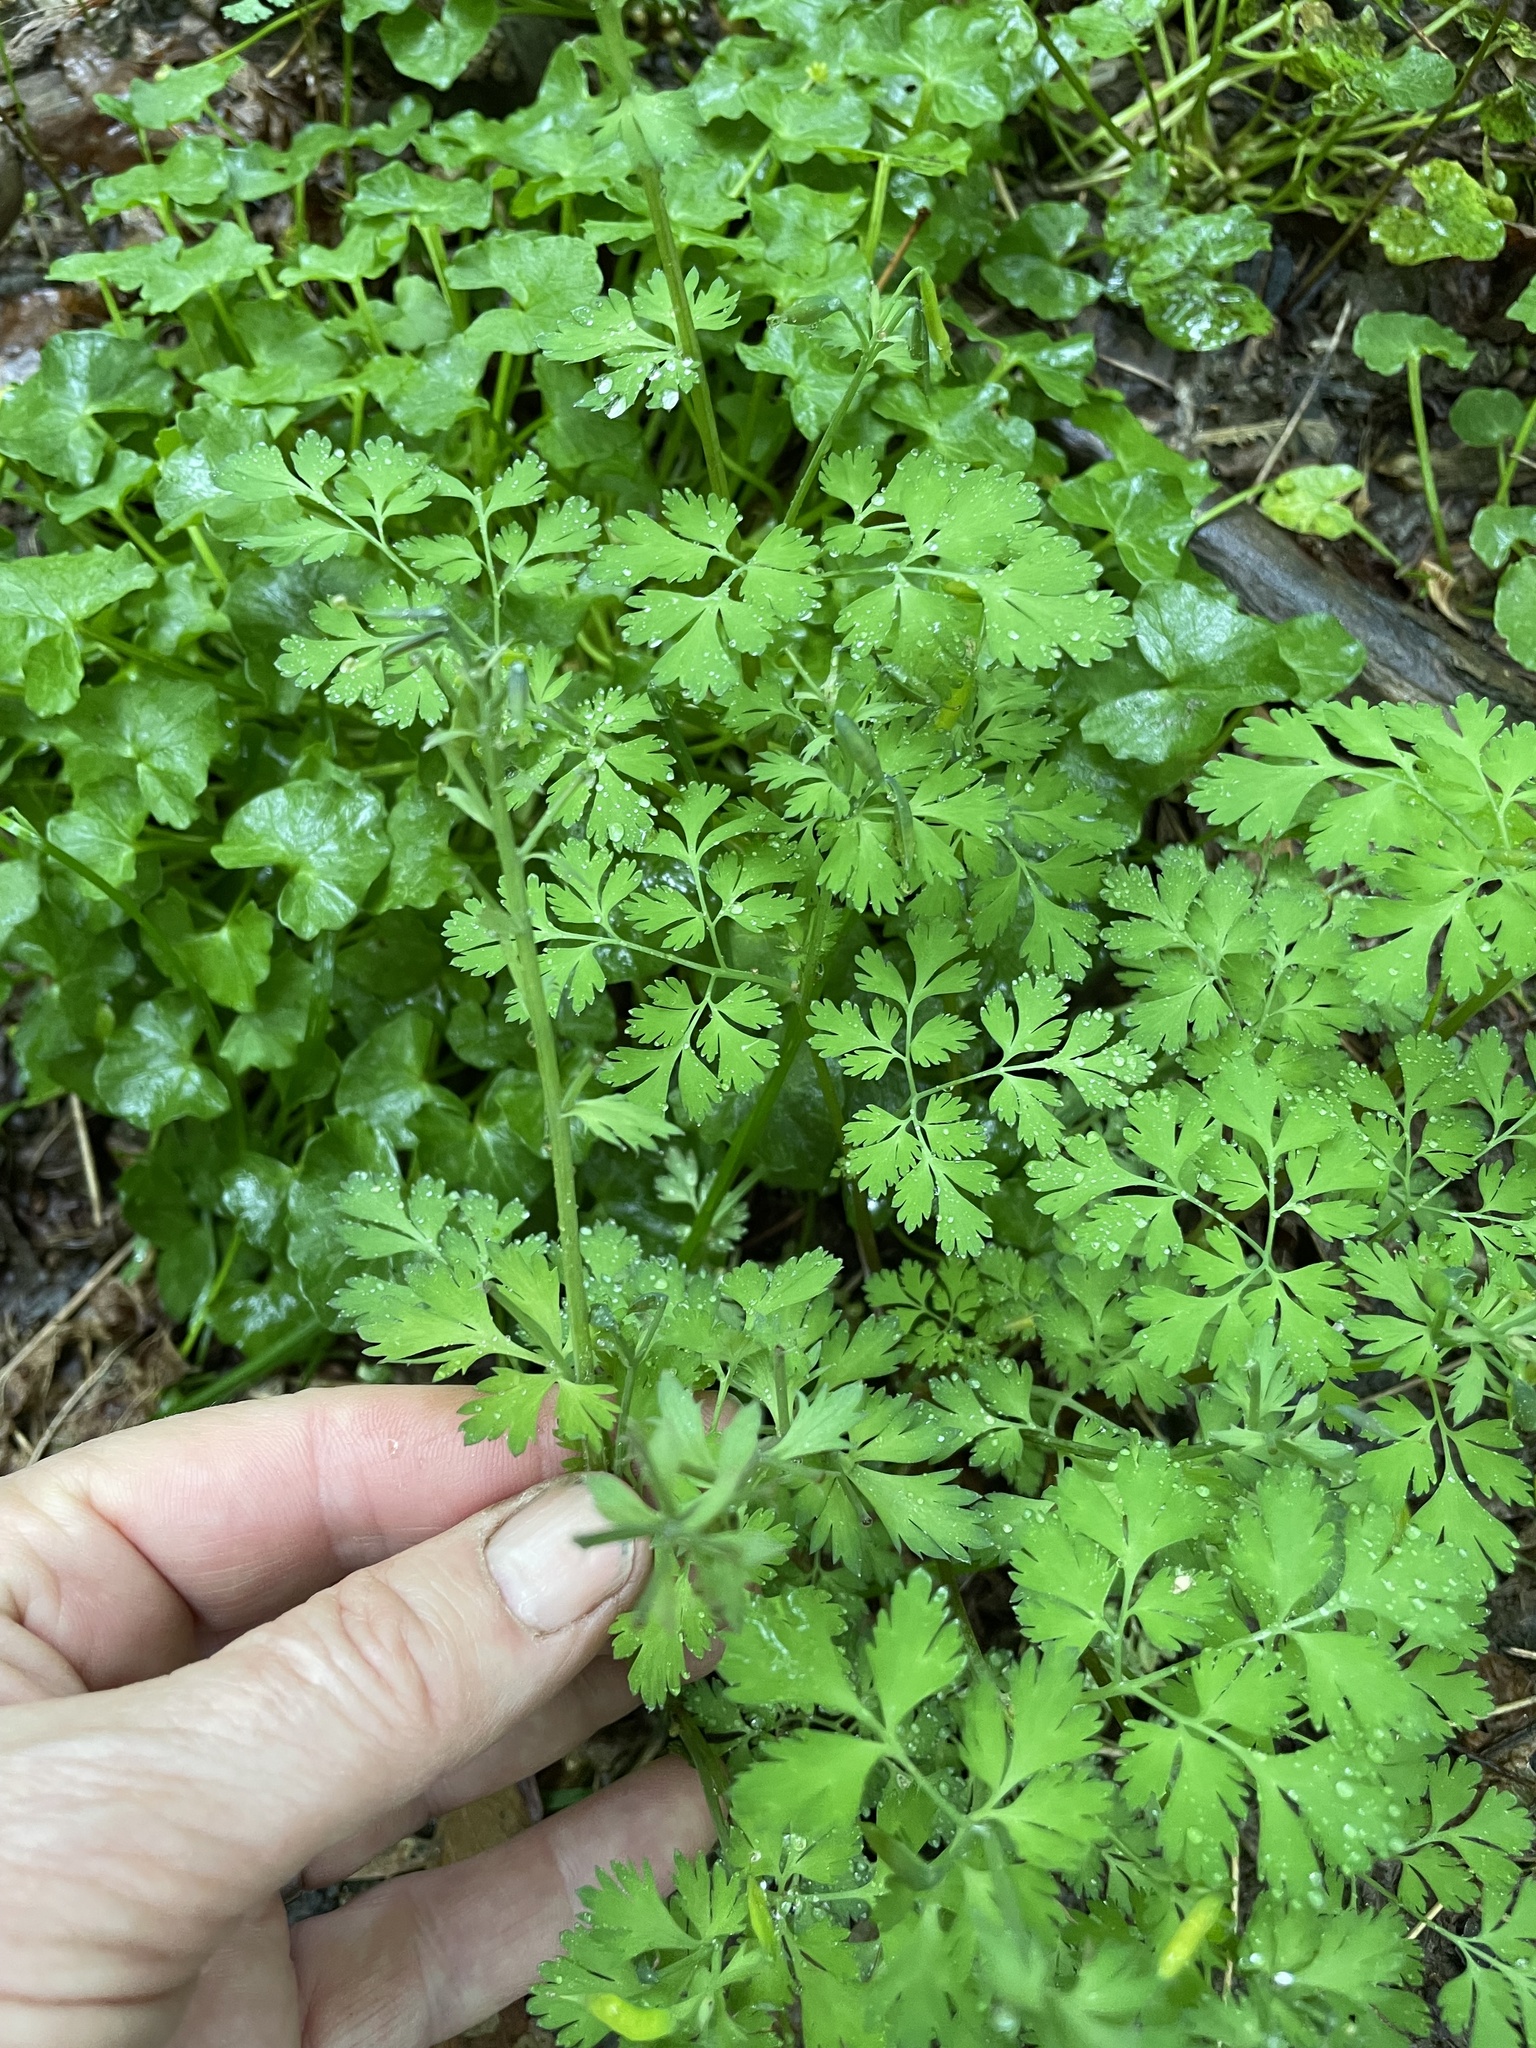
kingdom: Plantae
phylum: Tracheophyta
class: Magnoliopsida
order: Ranunculales
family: Papaveraceae
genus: Corydalis
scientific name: Corydalis incisa
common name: Incised fumewort
